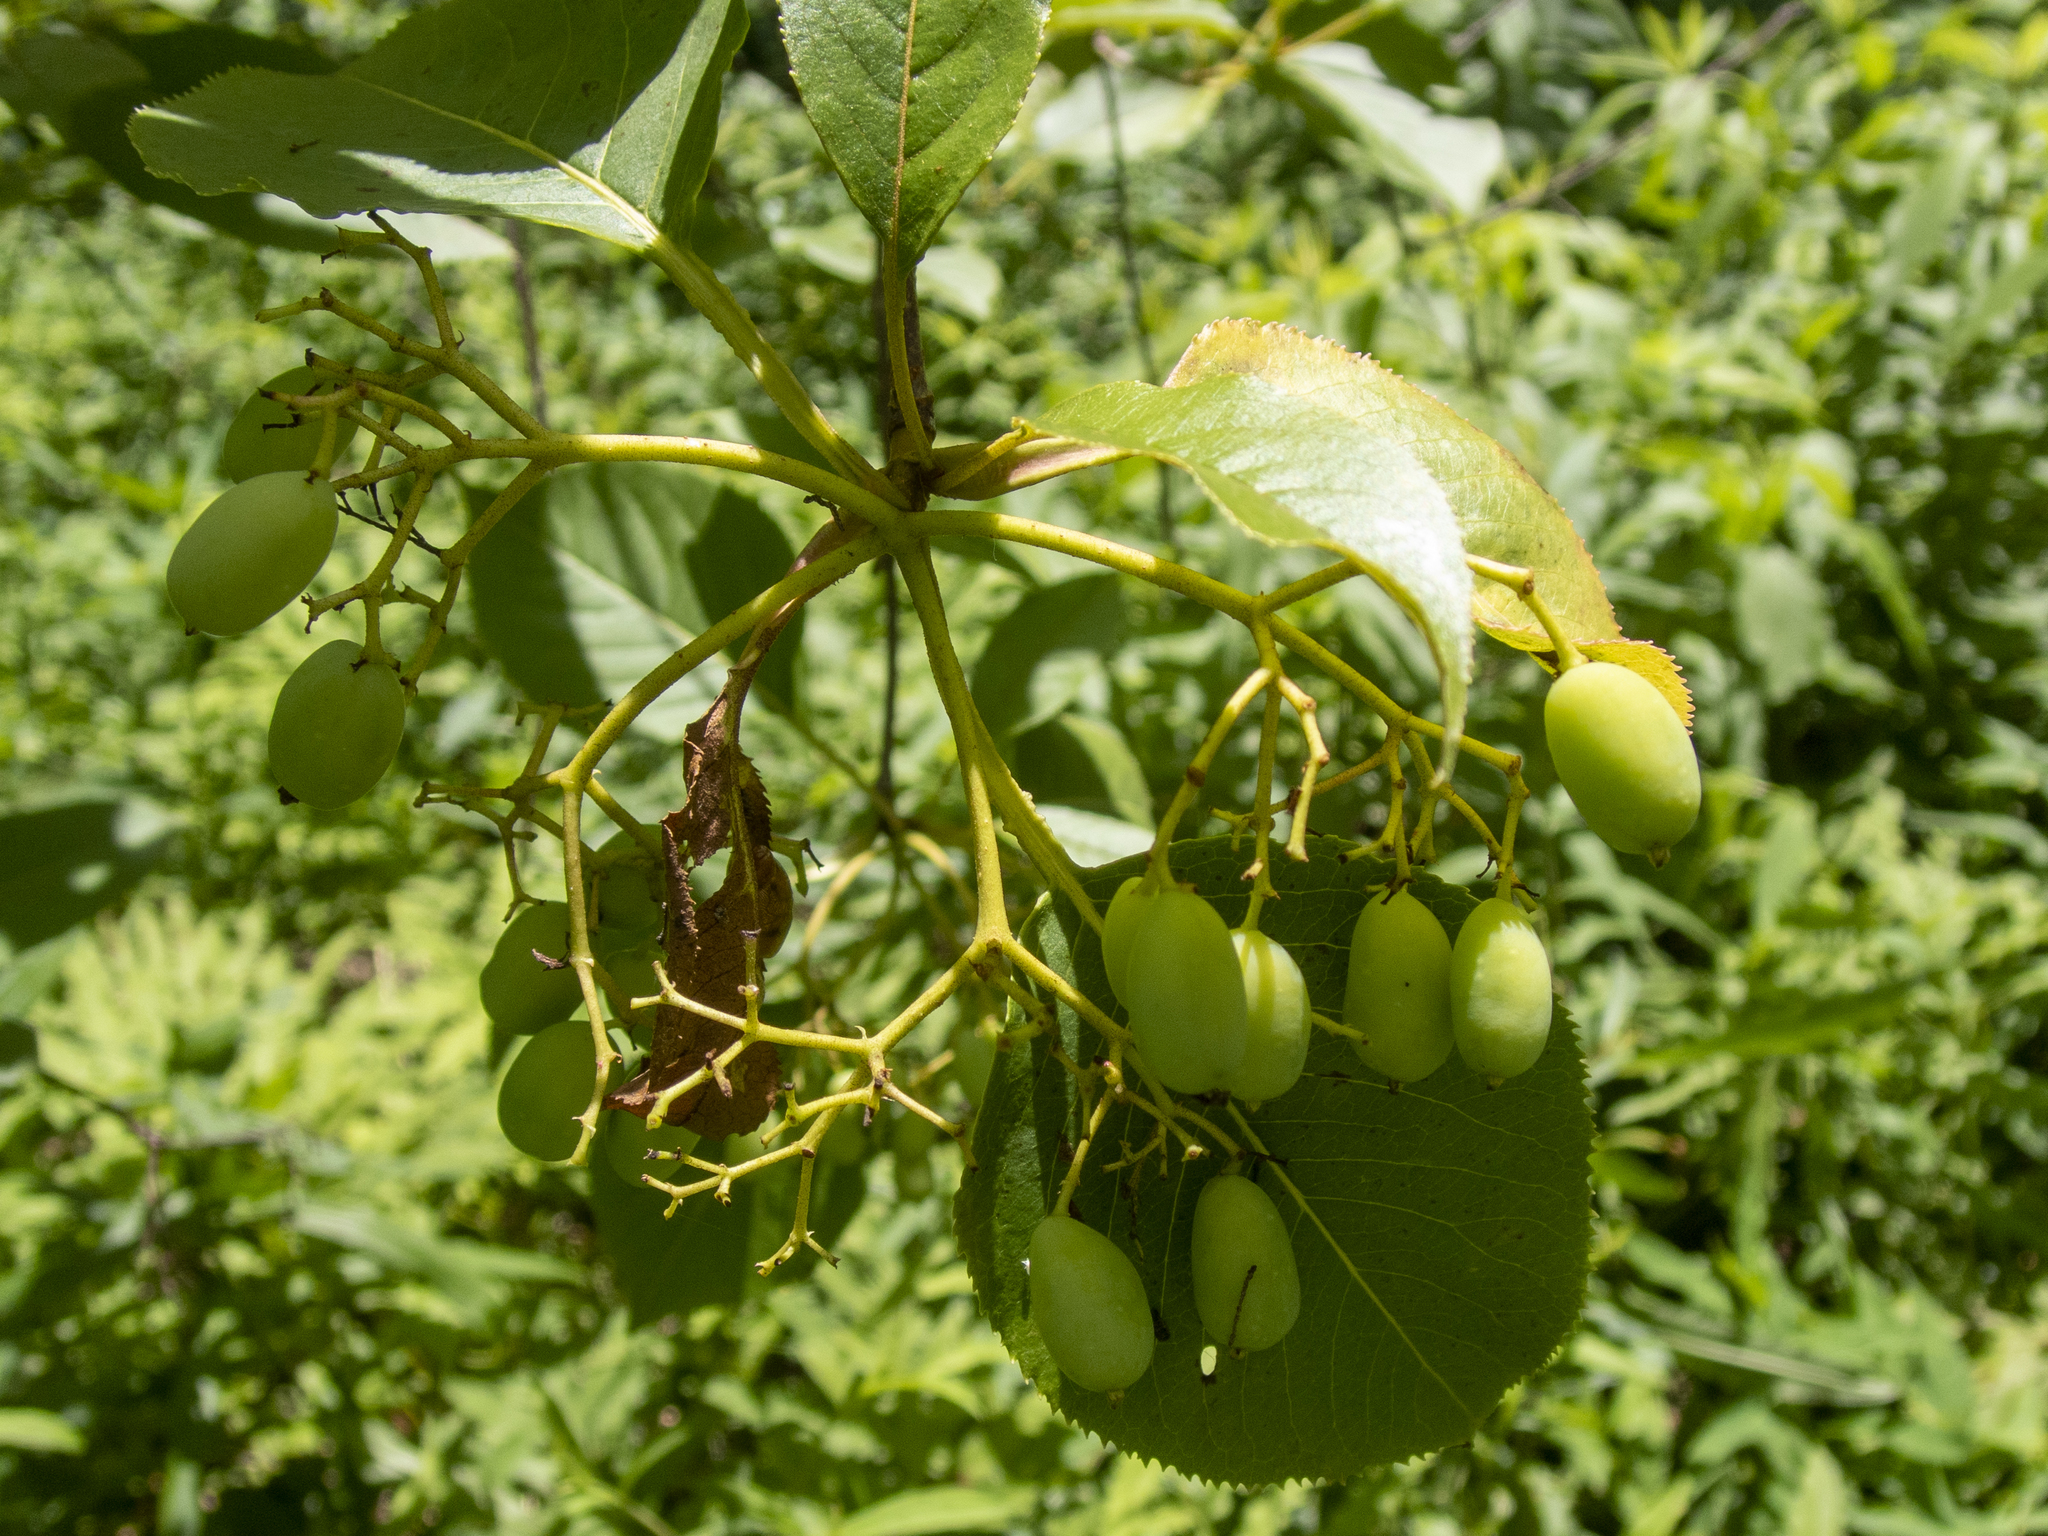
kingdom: Plantae
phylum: Tracheophyta
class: Magnoliopsida
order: Dipsacales
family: Viburnaceae
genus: Viburnum
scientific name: Viburnum lentago
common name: Black haw
